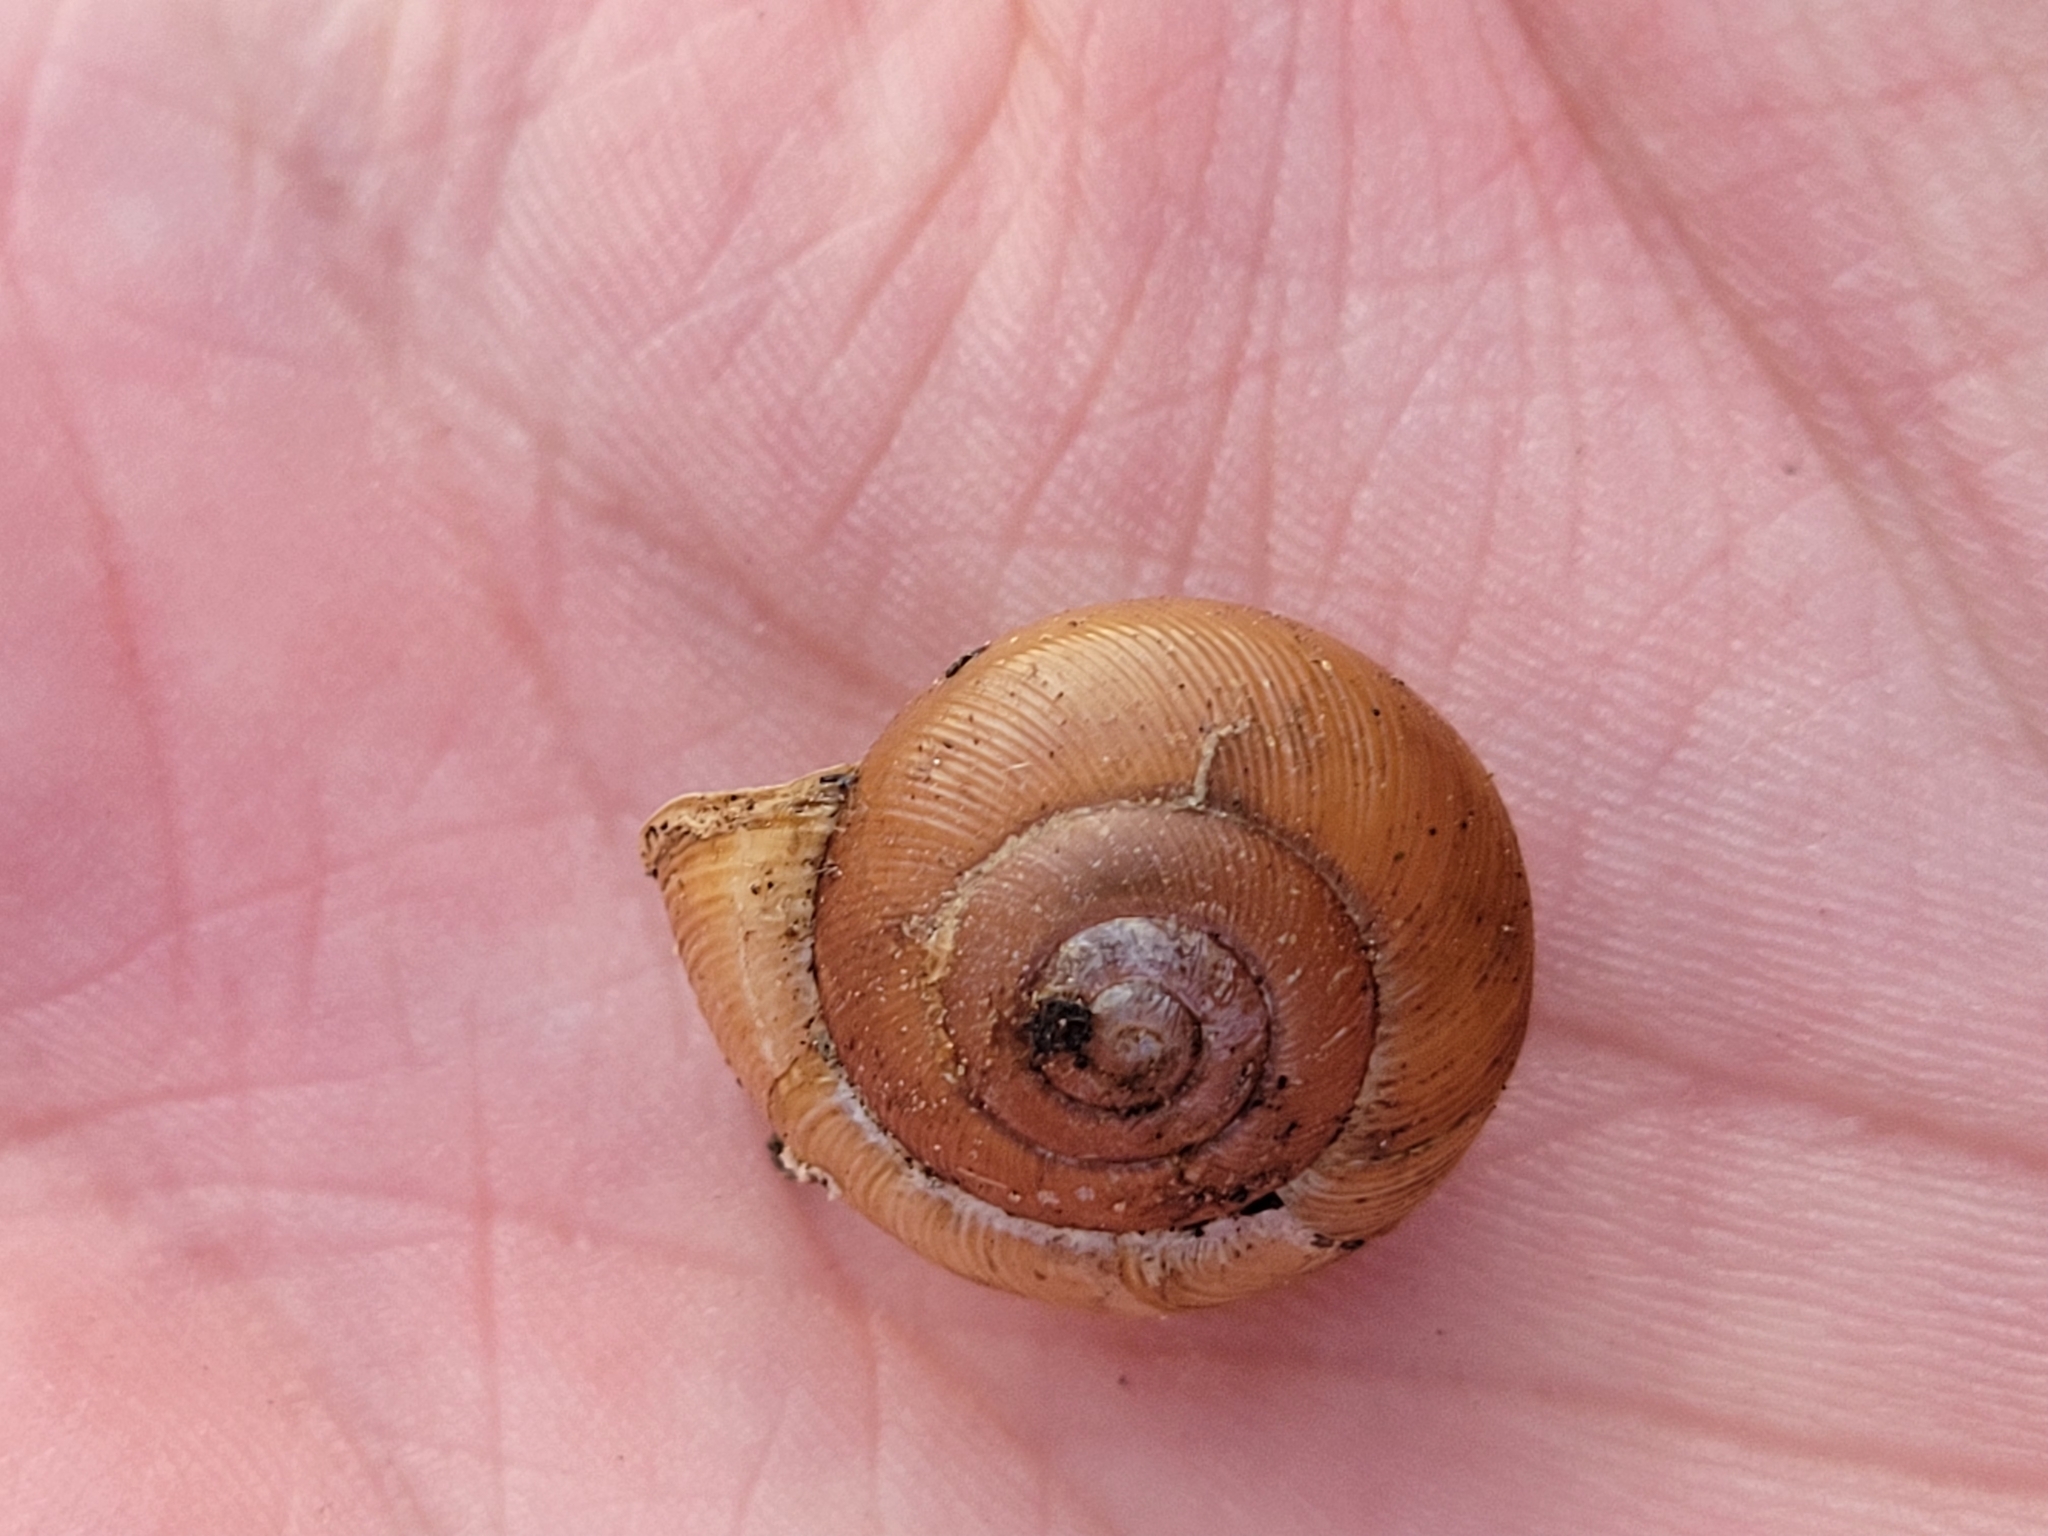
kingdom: Animalia
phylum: Mollusca
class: Gastropoda
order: Stylommatophora
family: Polygyridae
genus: Mesodon
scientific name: Mesodon thyroidus
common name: White-lip globe
